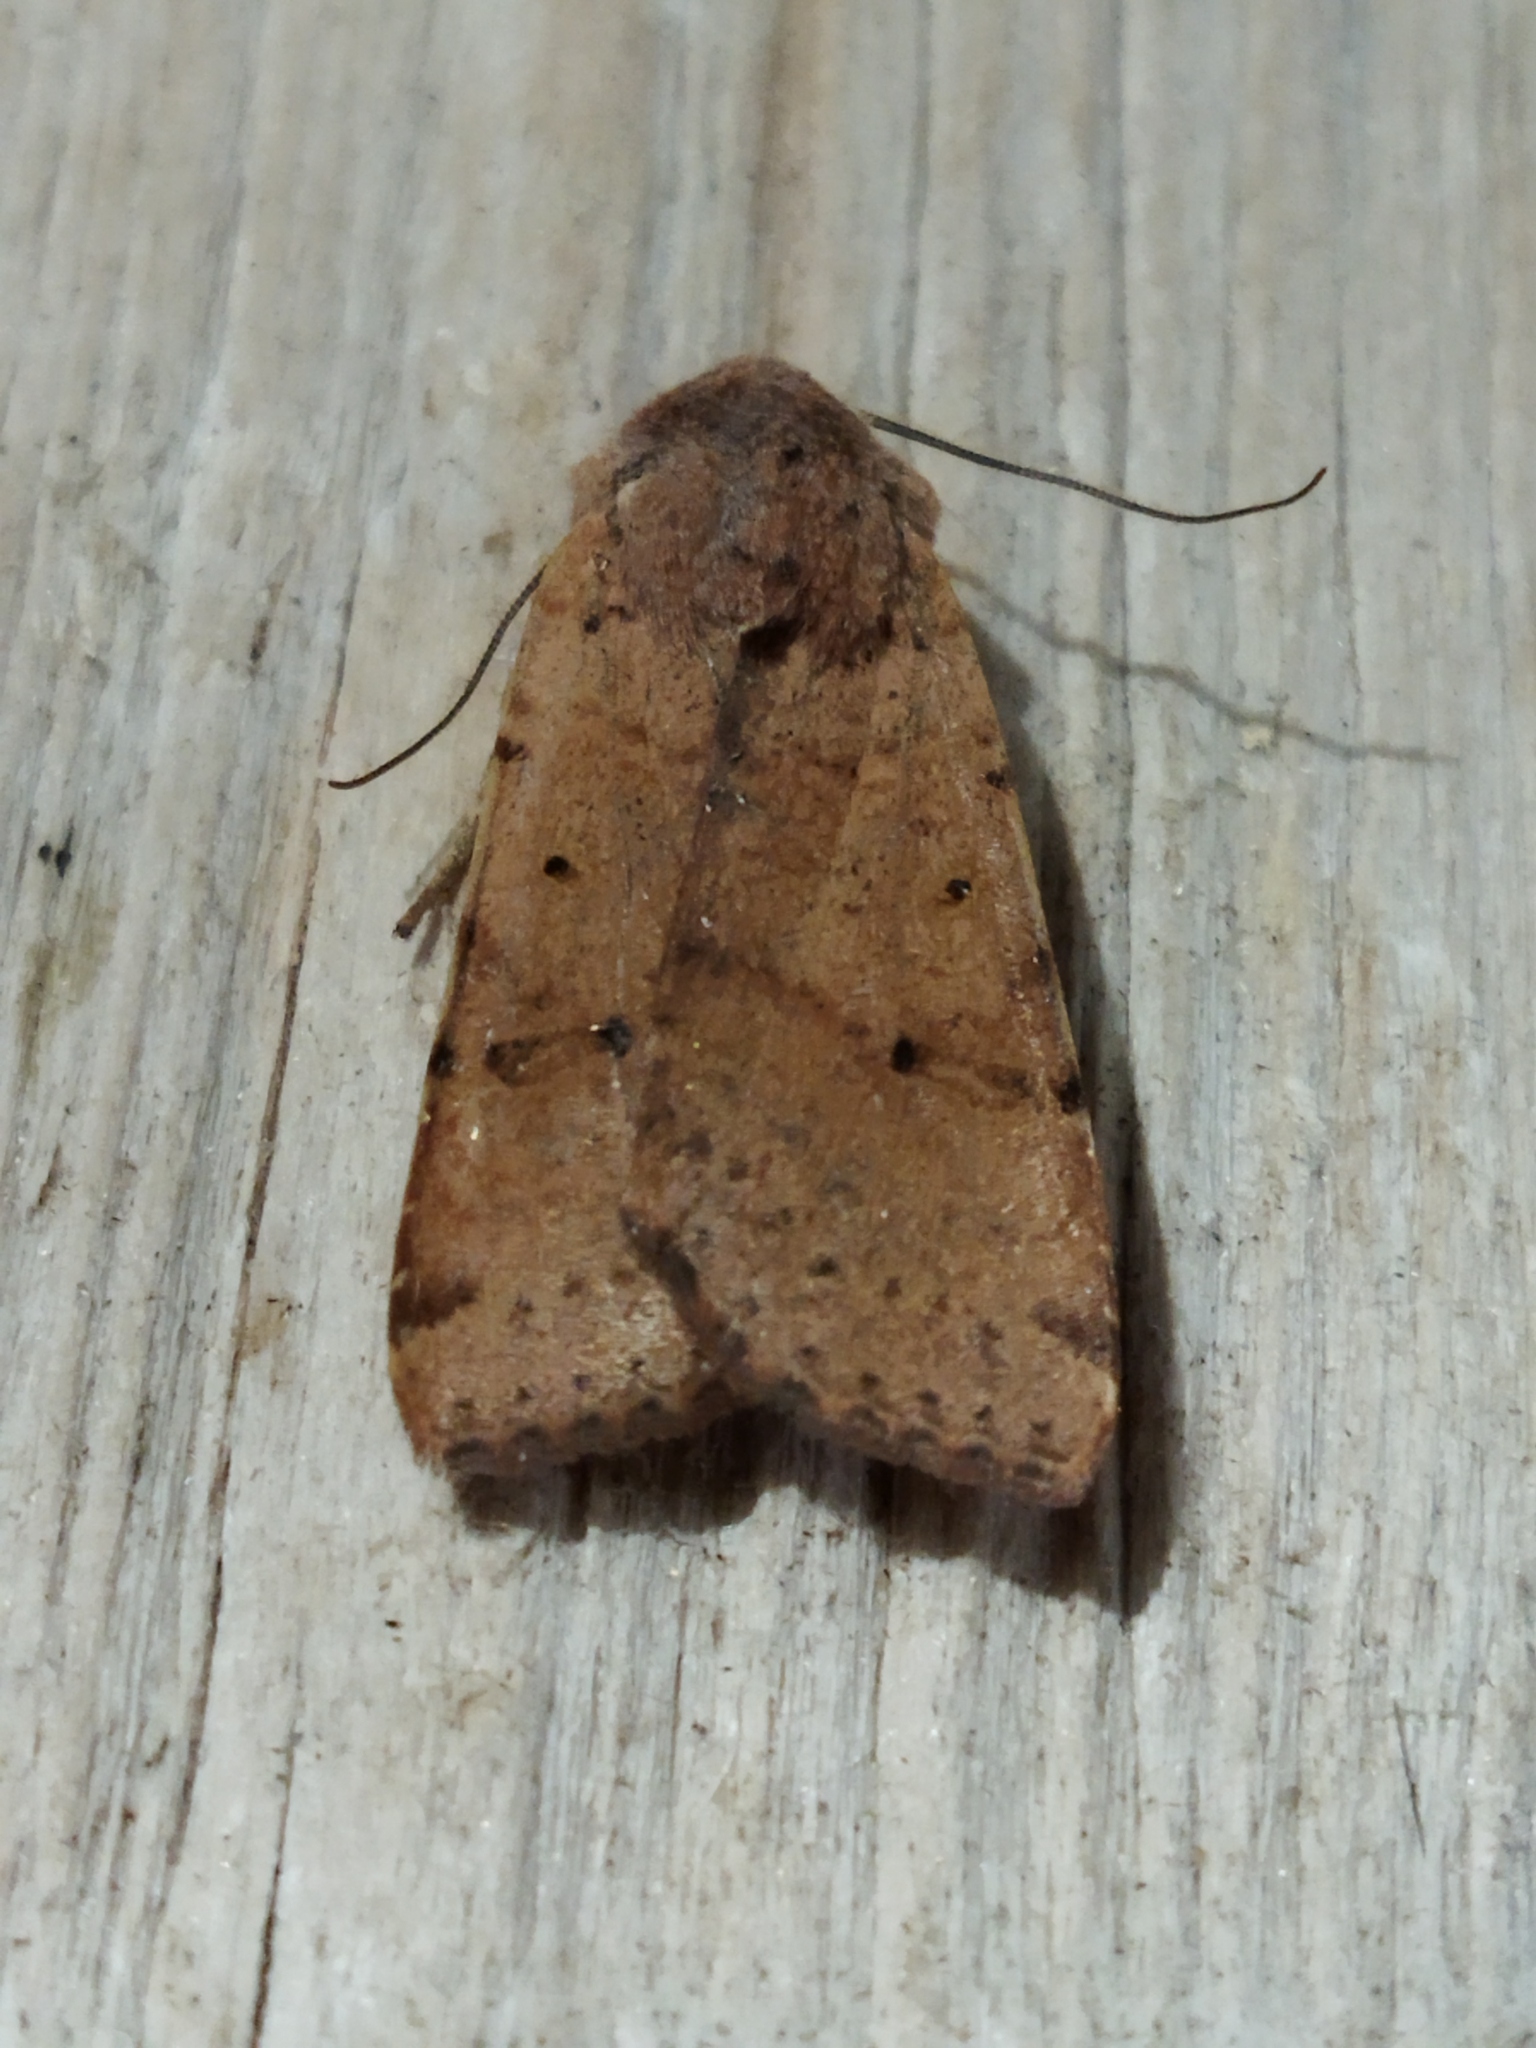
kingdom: Animalia
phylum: Arthropoda
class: Insecta
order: Lepidoptera
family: Noctuidae
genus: Agrochola
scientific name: Agrochola lychnidis
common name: Beaded chestnut
